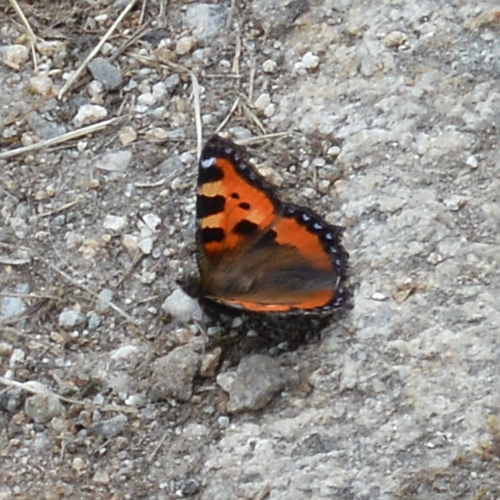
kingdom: Animalia
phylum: Arthropoda
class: Insecta
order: Lepidoptera
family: Nymphalidae
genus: Aglais
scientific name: Aglais urticae
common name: Small tortoiseshell
